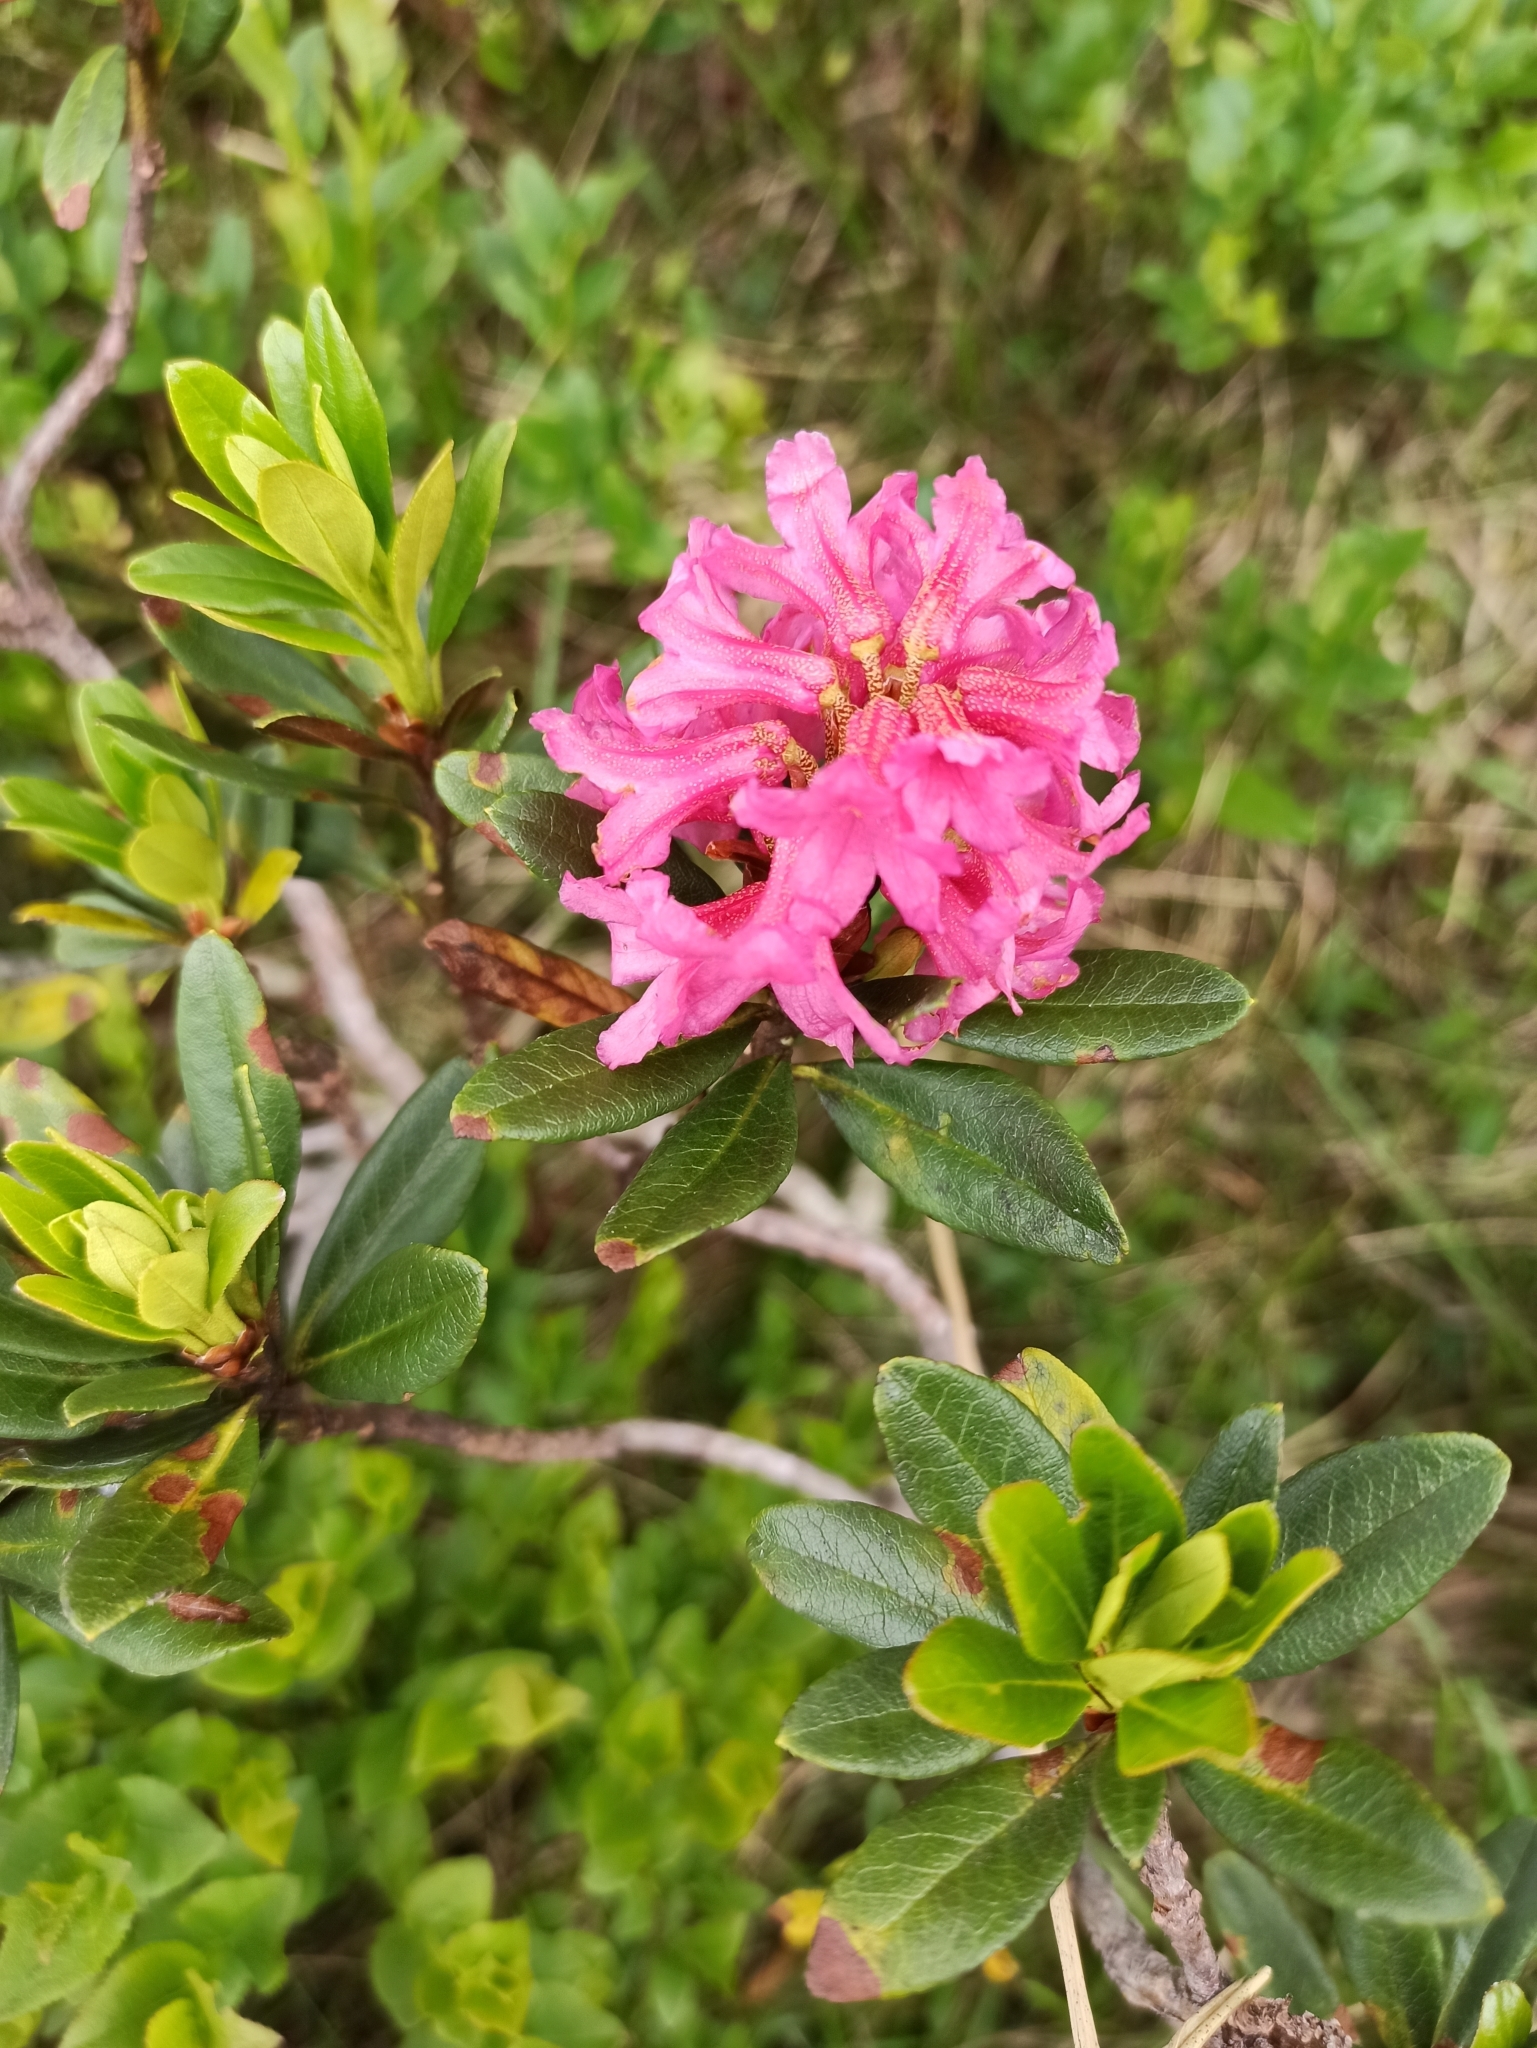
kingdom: Plantae
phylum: Tracheophyta
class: Magnoliopsida
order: Ericales
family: Ericaceae
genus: Rhododendron
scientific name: Rhododendron ferrugineum
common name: Alpenrose
